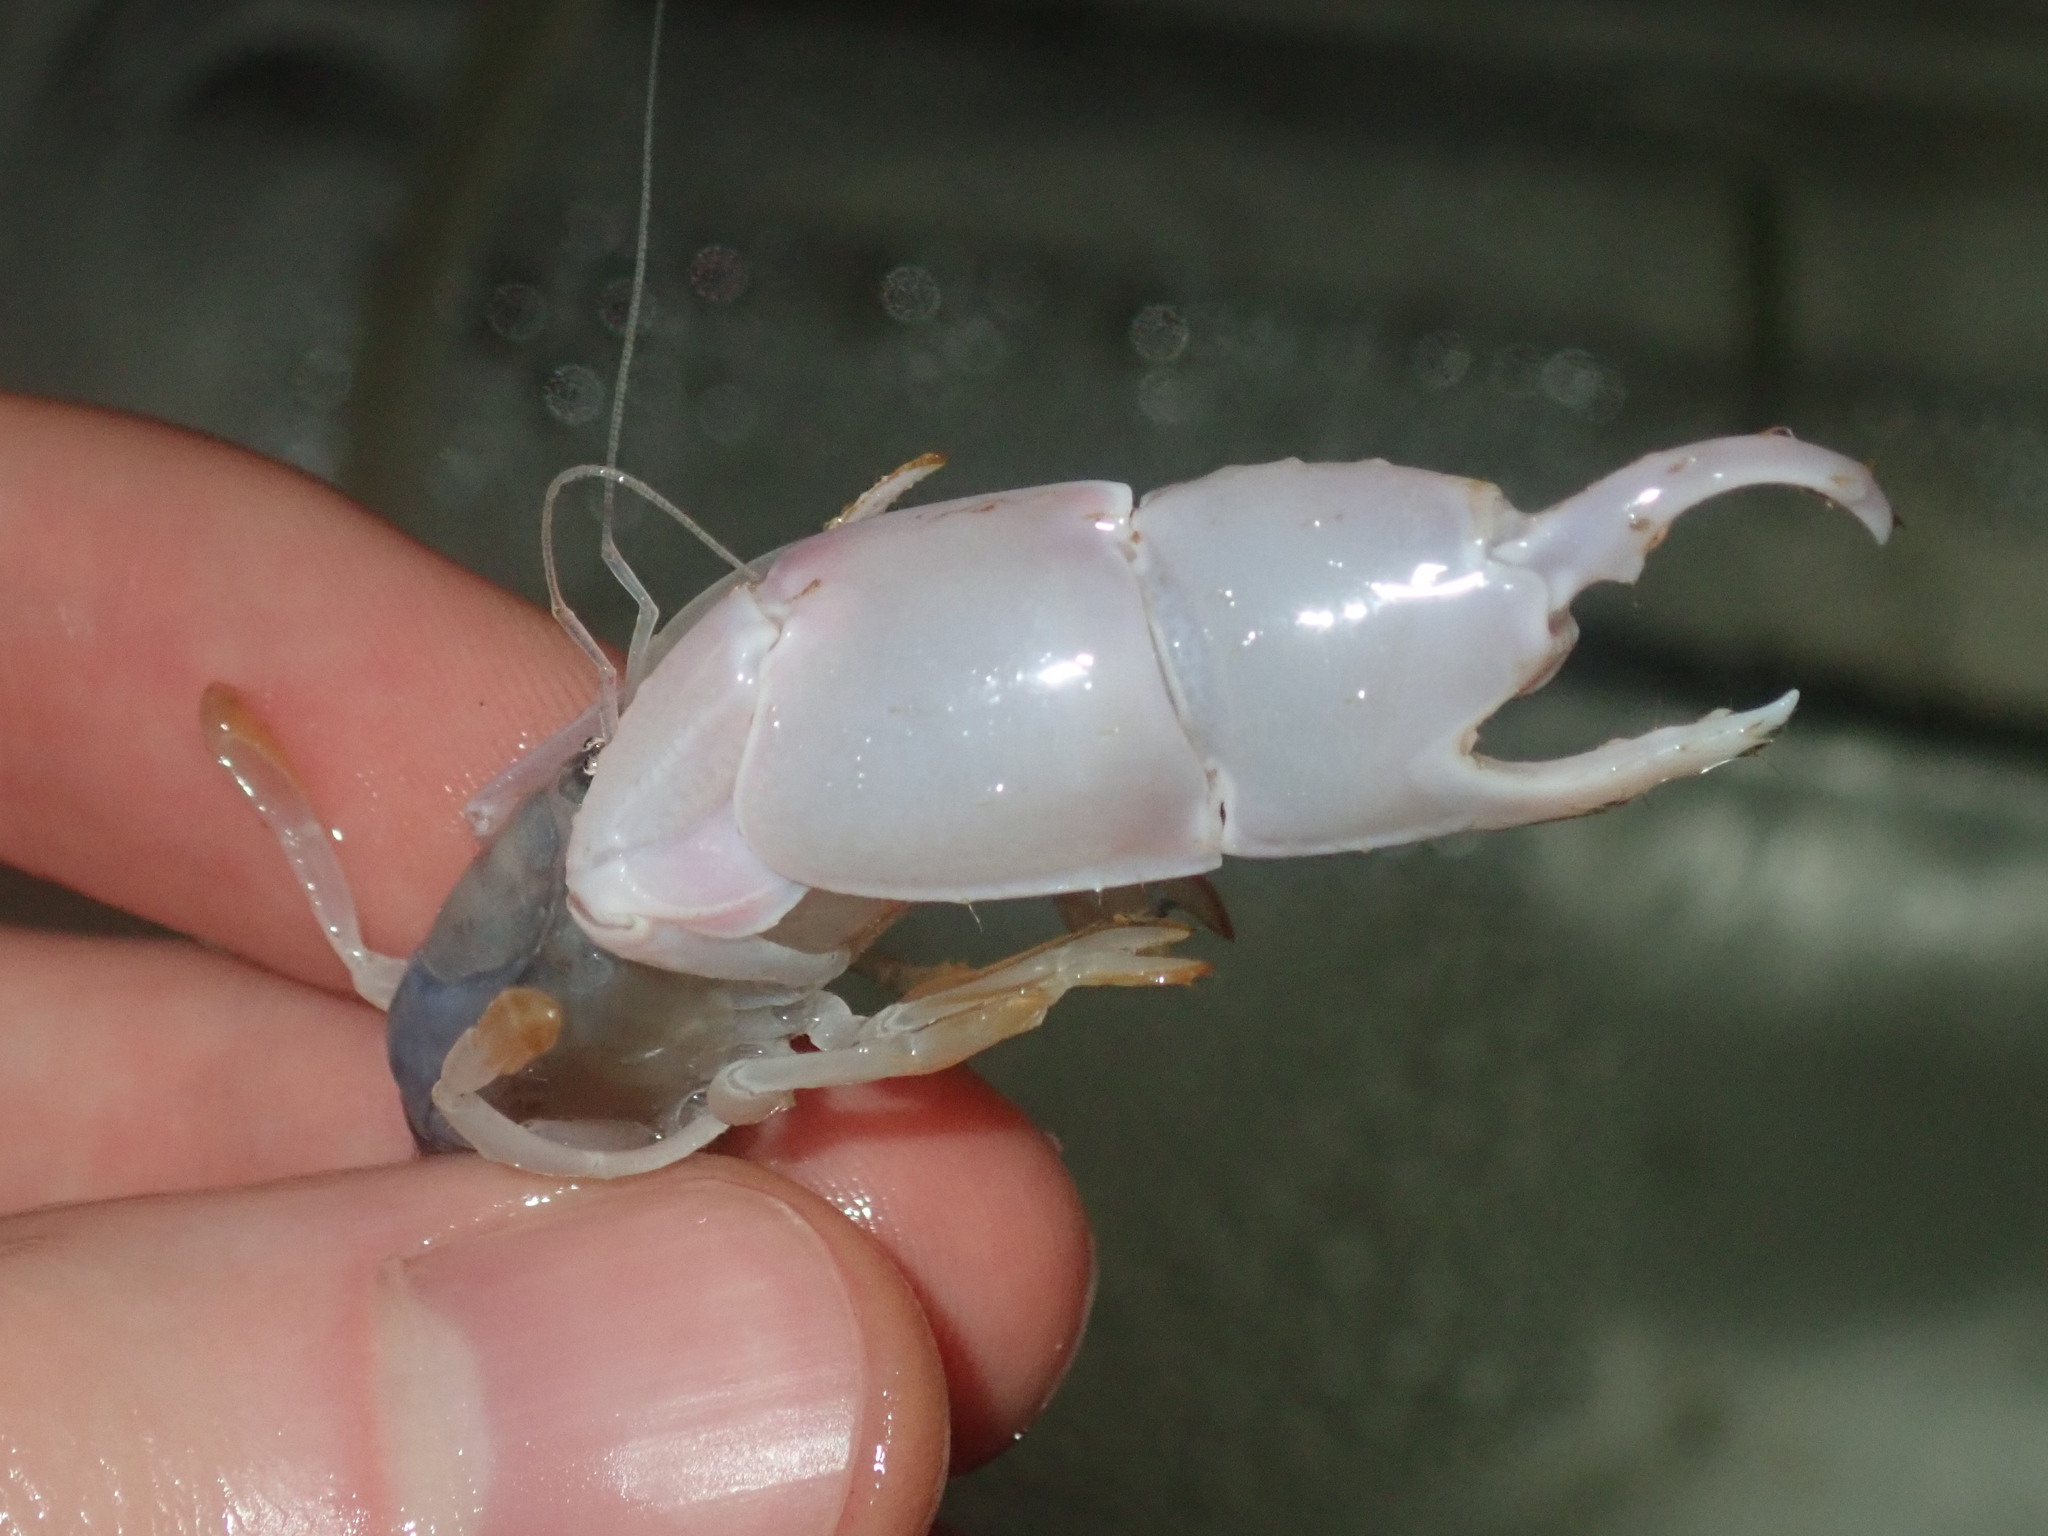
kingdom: Animalia
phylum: Arthropoda
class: Malacostraca
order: Decapoda
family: Callianassidae
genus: Trypaea
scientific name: Trypaea australiensis
